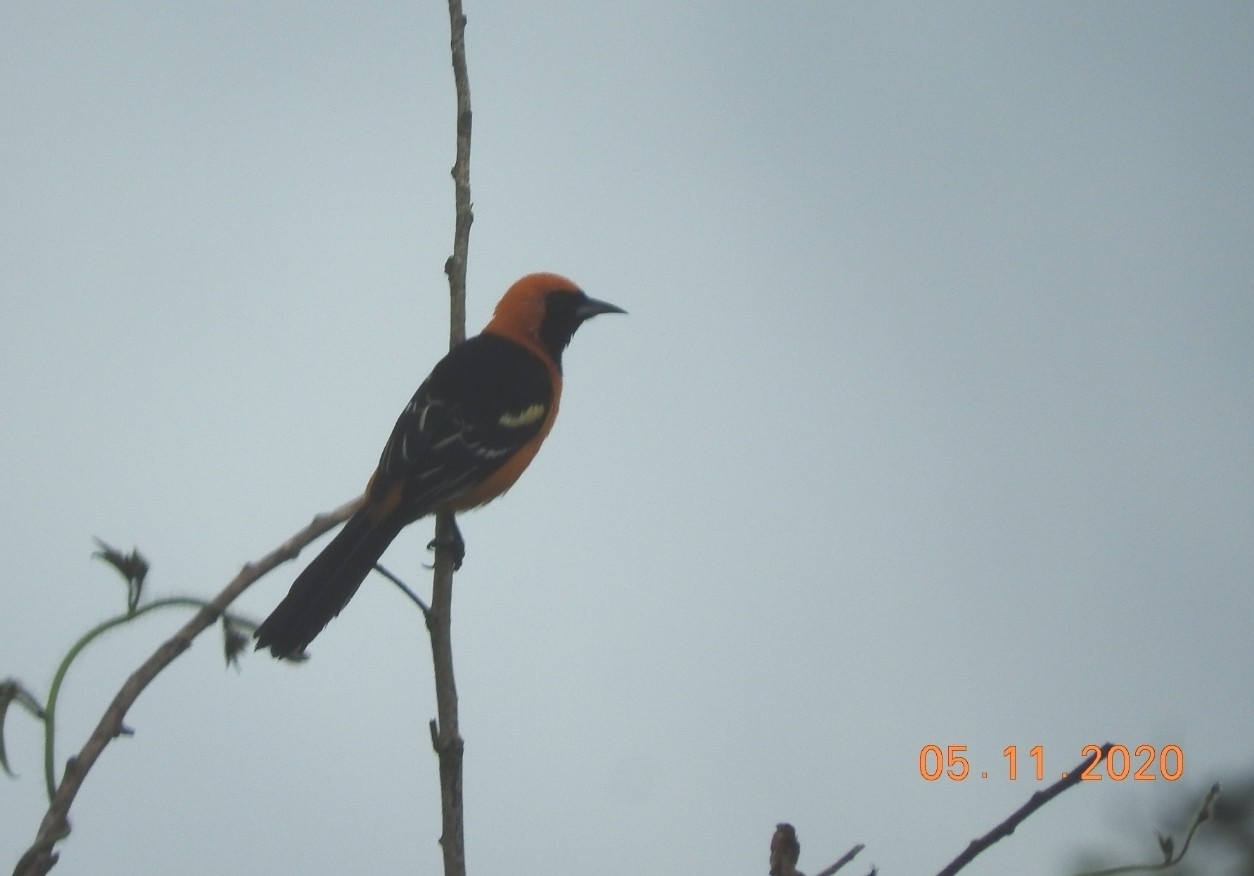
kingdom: Animalia
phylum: Chordata
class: Aves
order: Passeriformes
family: Icteridae
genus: Icterus
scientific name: Icterus cucullatus
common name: Hooded oriole
